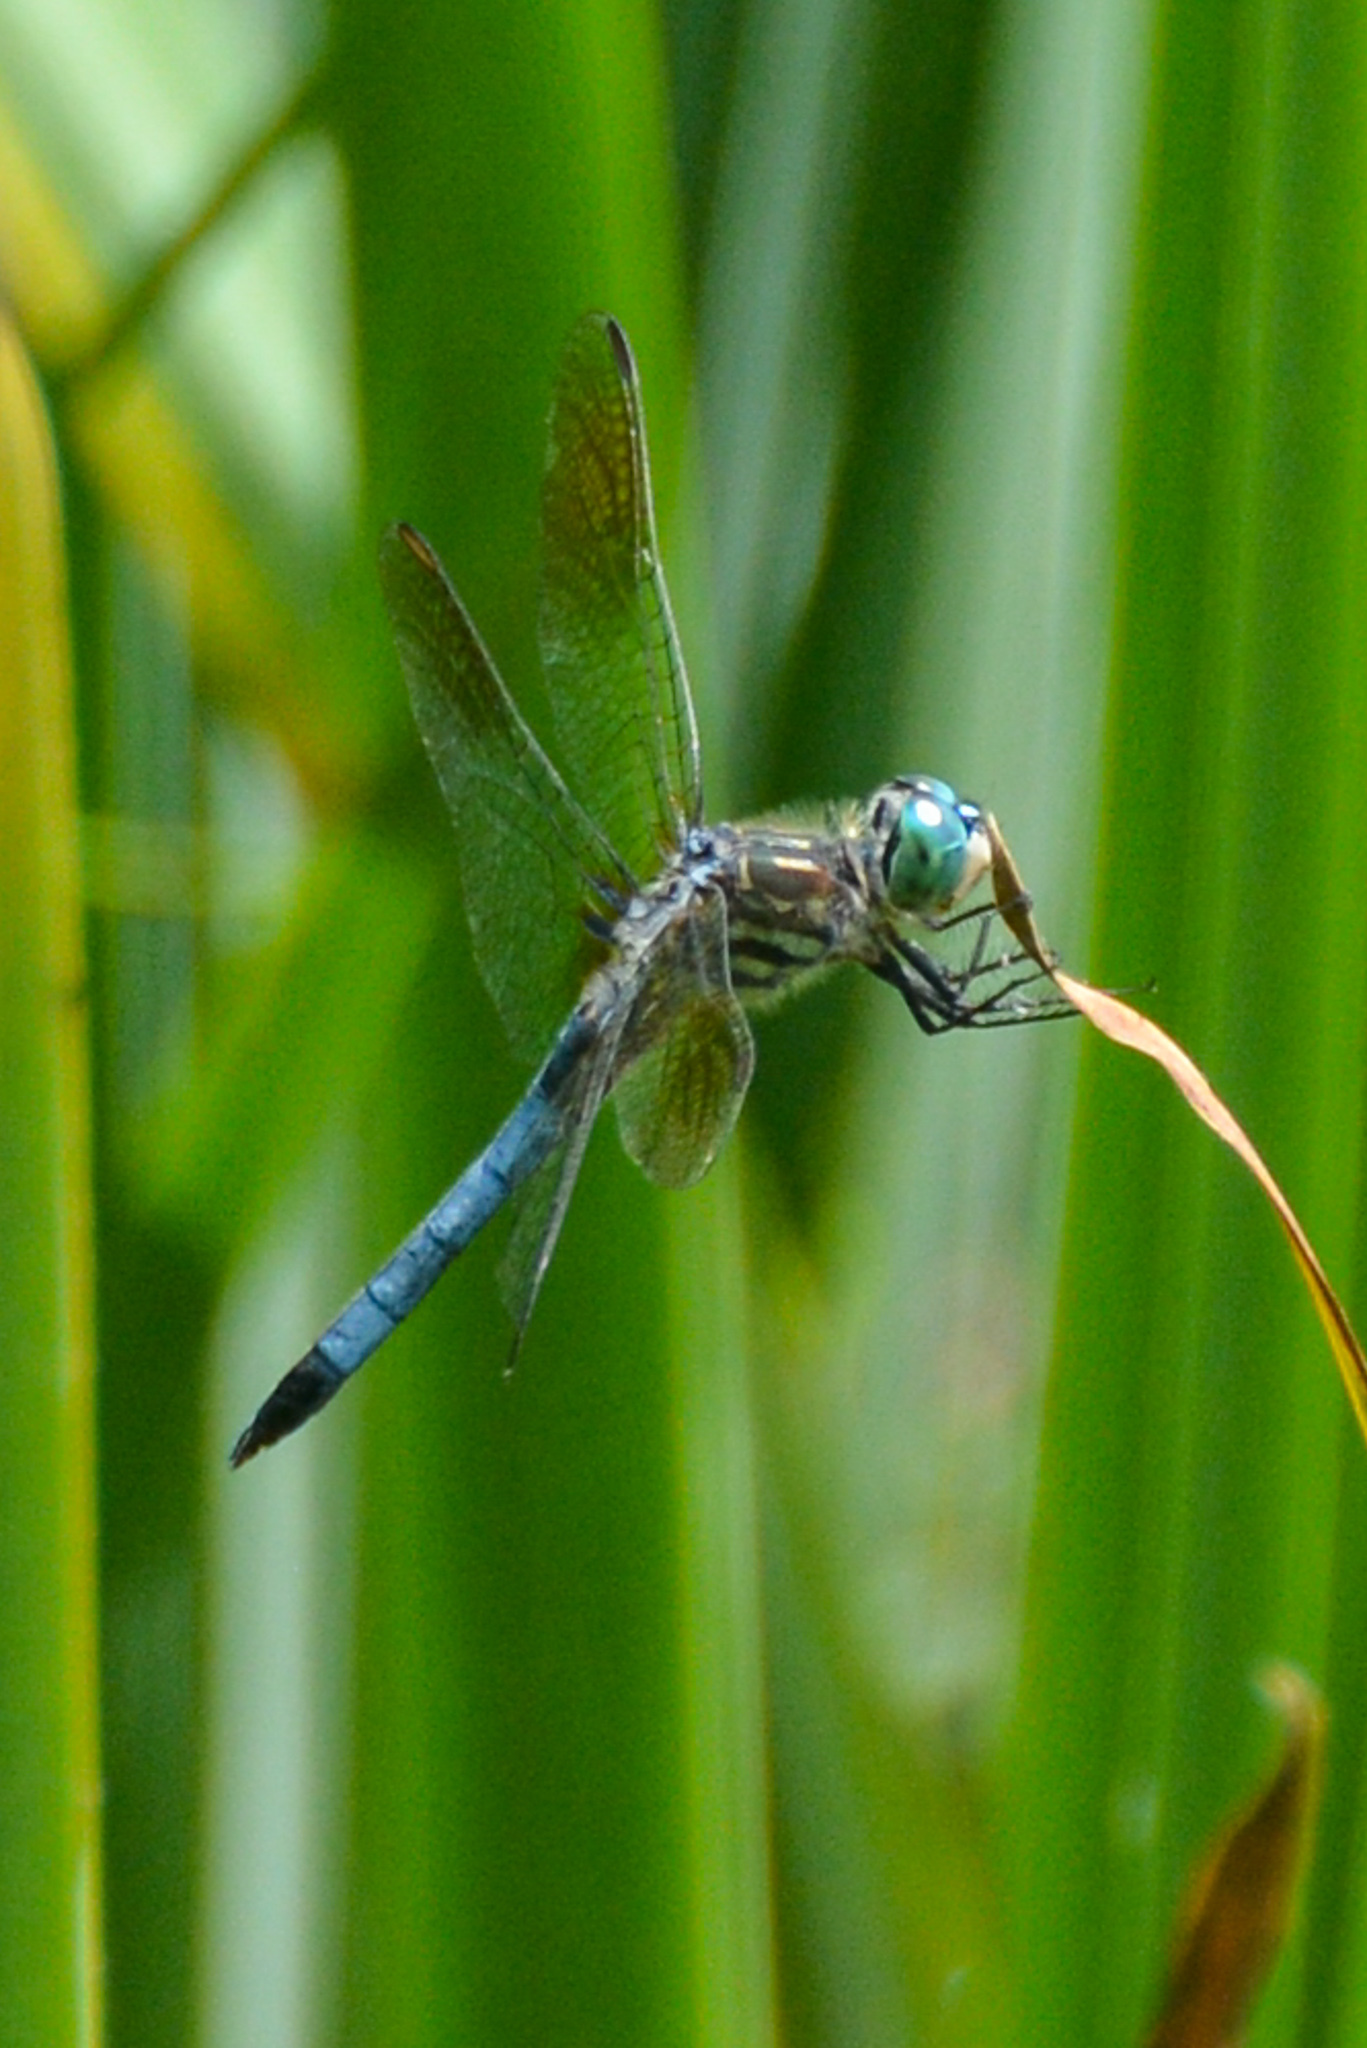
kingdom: Animalia
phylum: Arthropoda
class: Insecta
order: Odonata
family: Libellulidae
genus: Pachydiplax
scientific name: Pachydiplax longipennis
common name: Blue dasher
